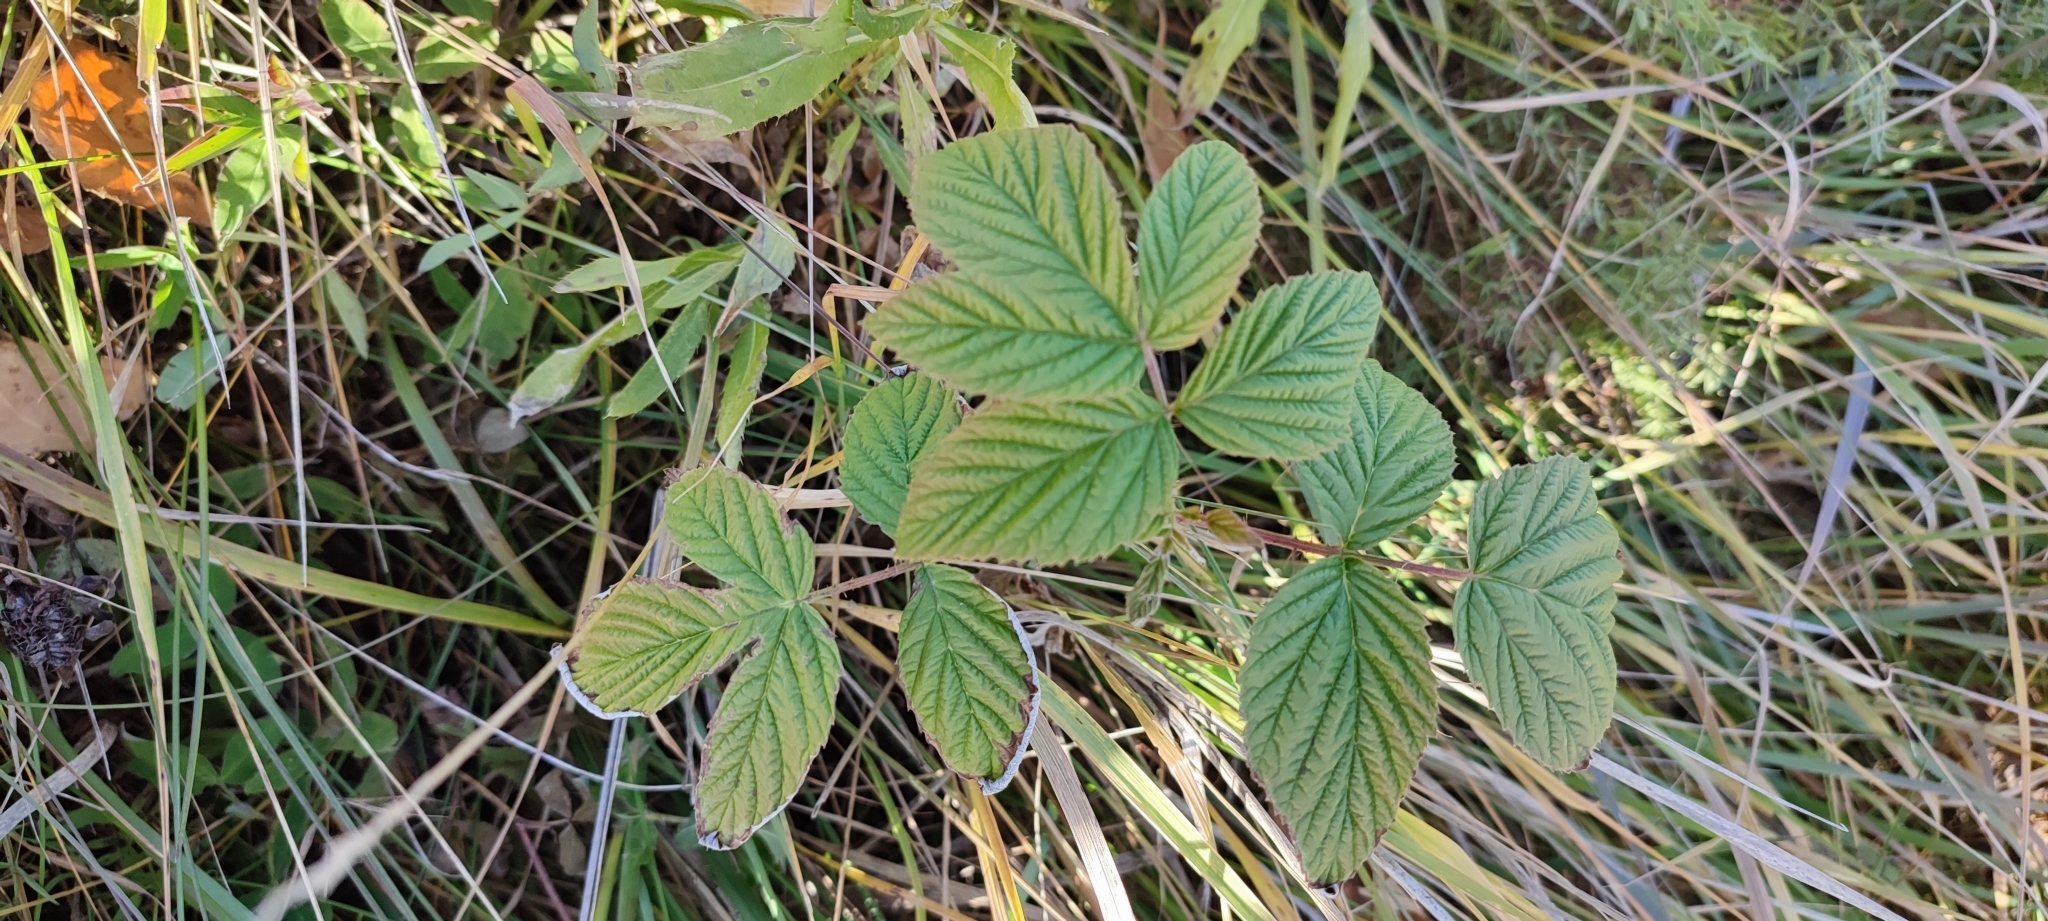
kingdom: Plantae
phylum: Tracheophyta
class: Magnoliopsida
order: Rosales
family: Rosaceae
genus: Rubus
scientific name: Rubus idaeus
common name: Raspberry
